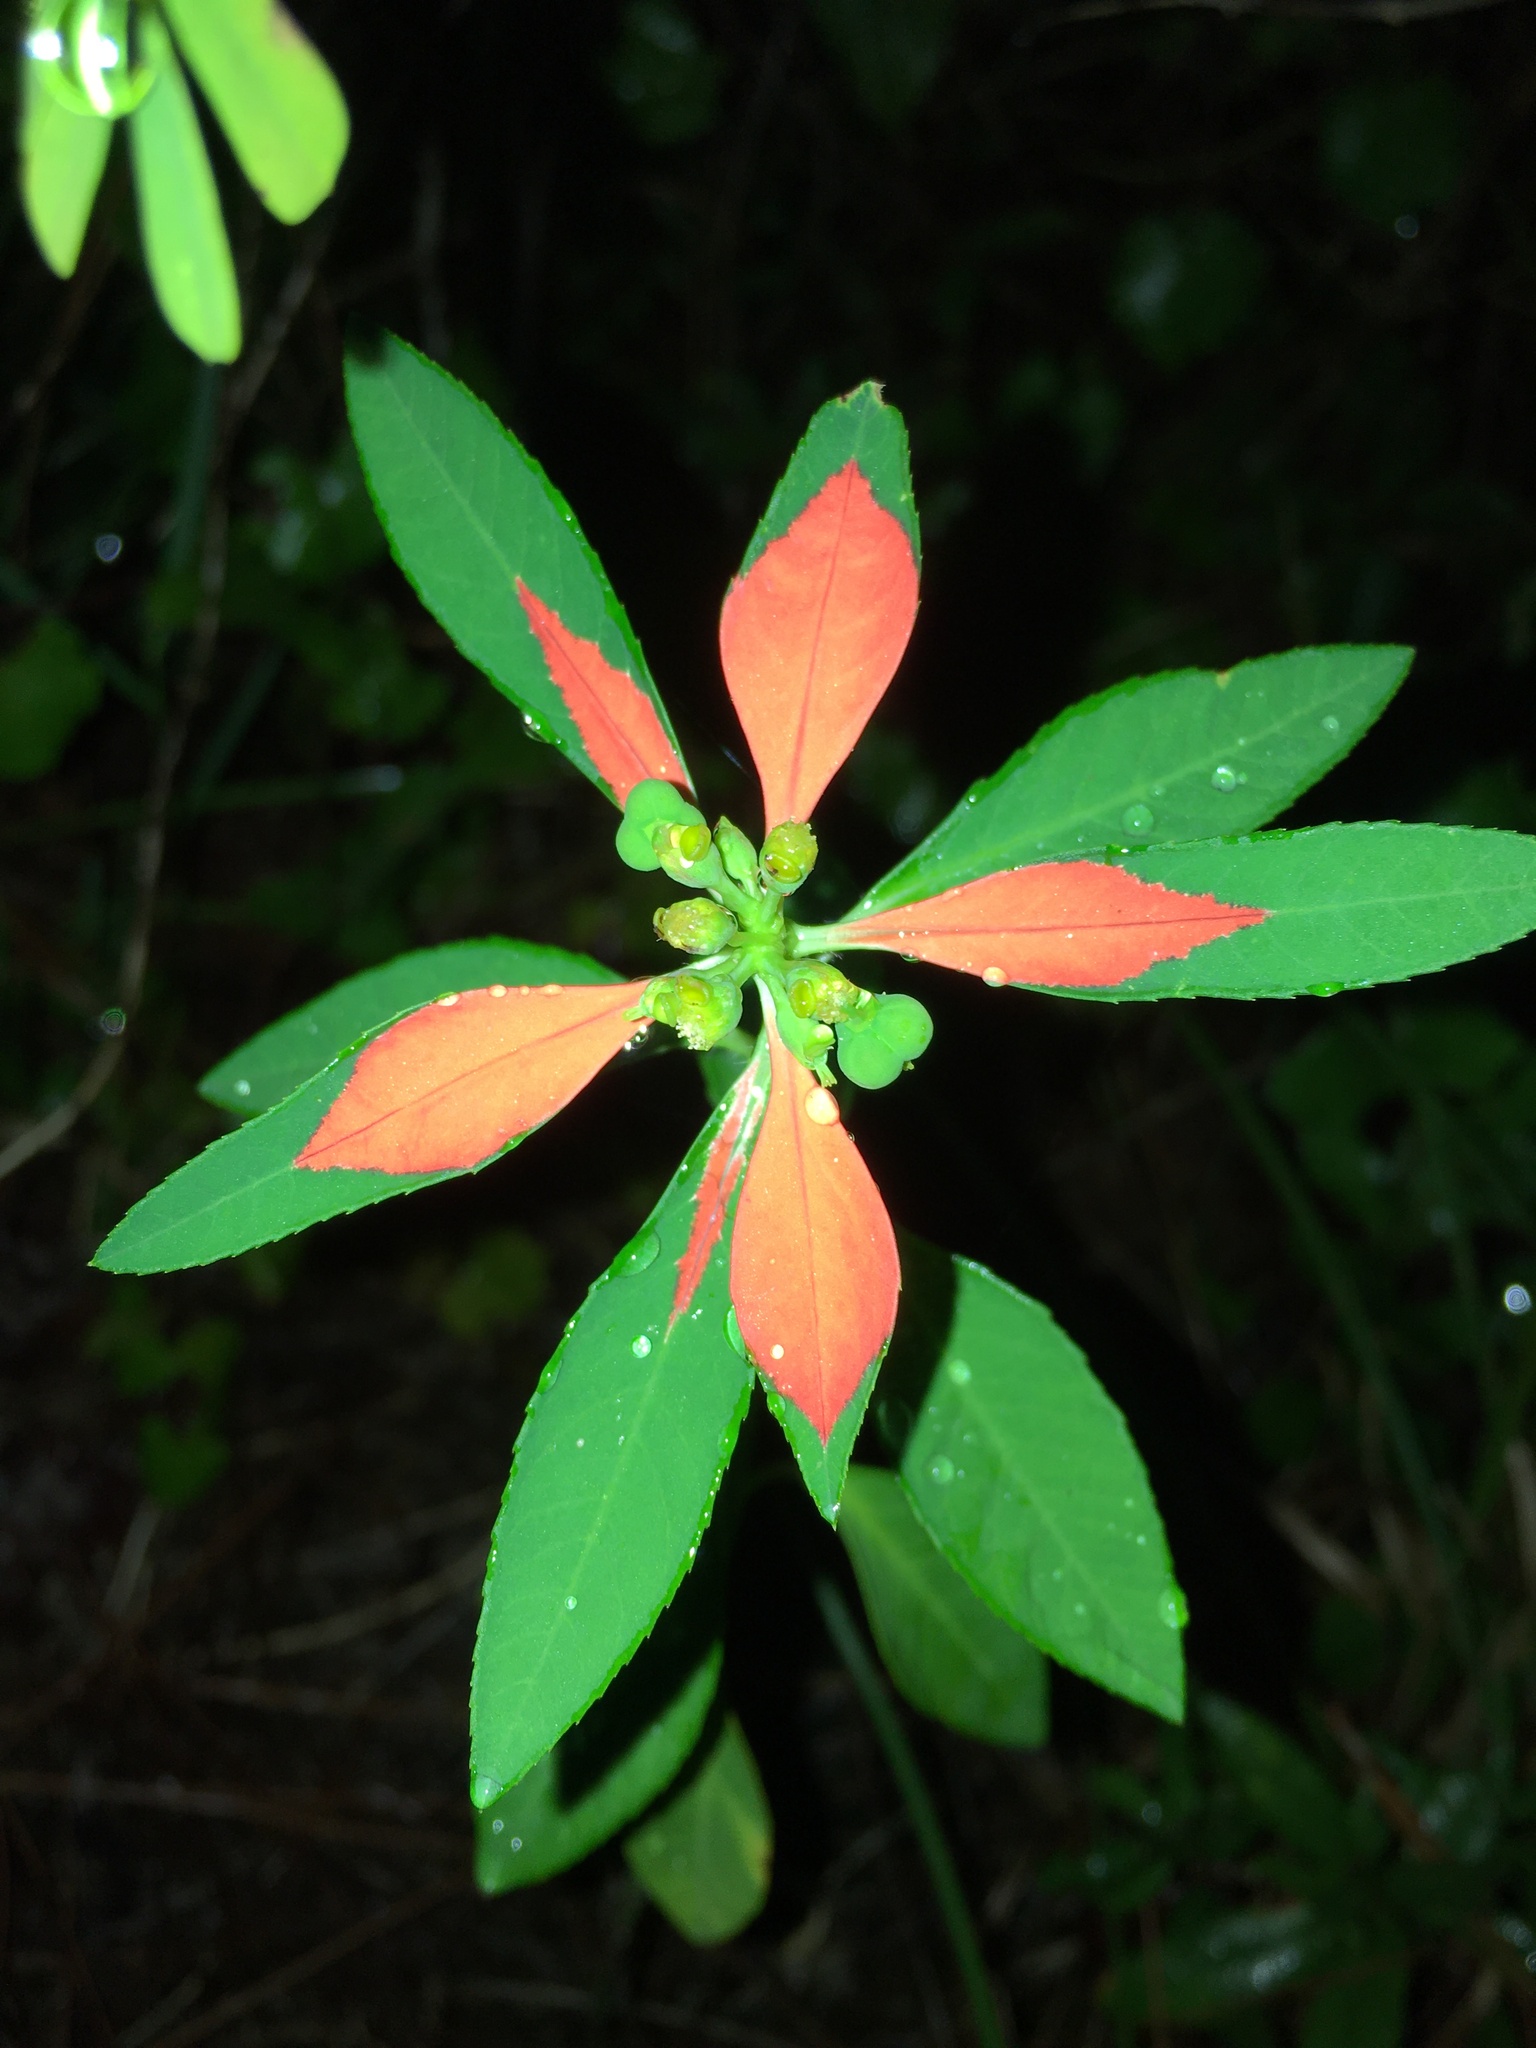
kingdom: Plantae
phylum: Tracheophyta
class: Magnoliopsida
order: Malpighiales
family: Euphorbiaceae
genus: Euphorbia
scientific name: Euphorbia heterophylla
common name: Mexican fireplant
